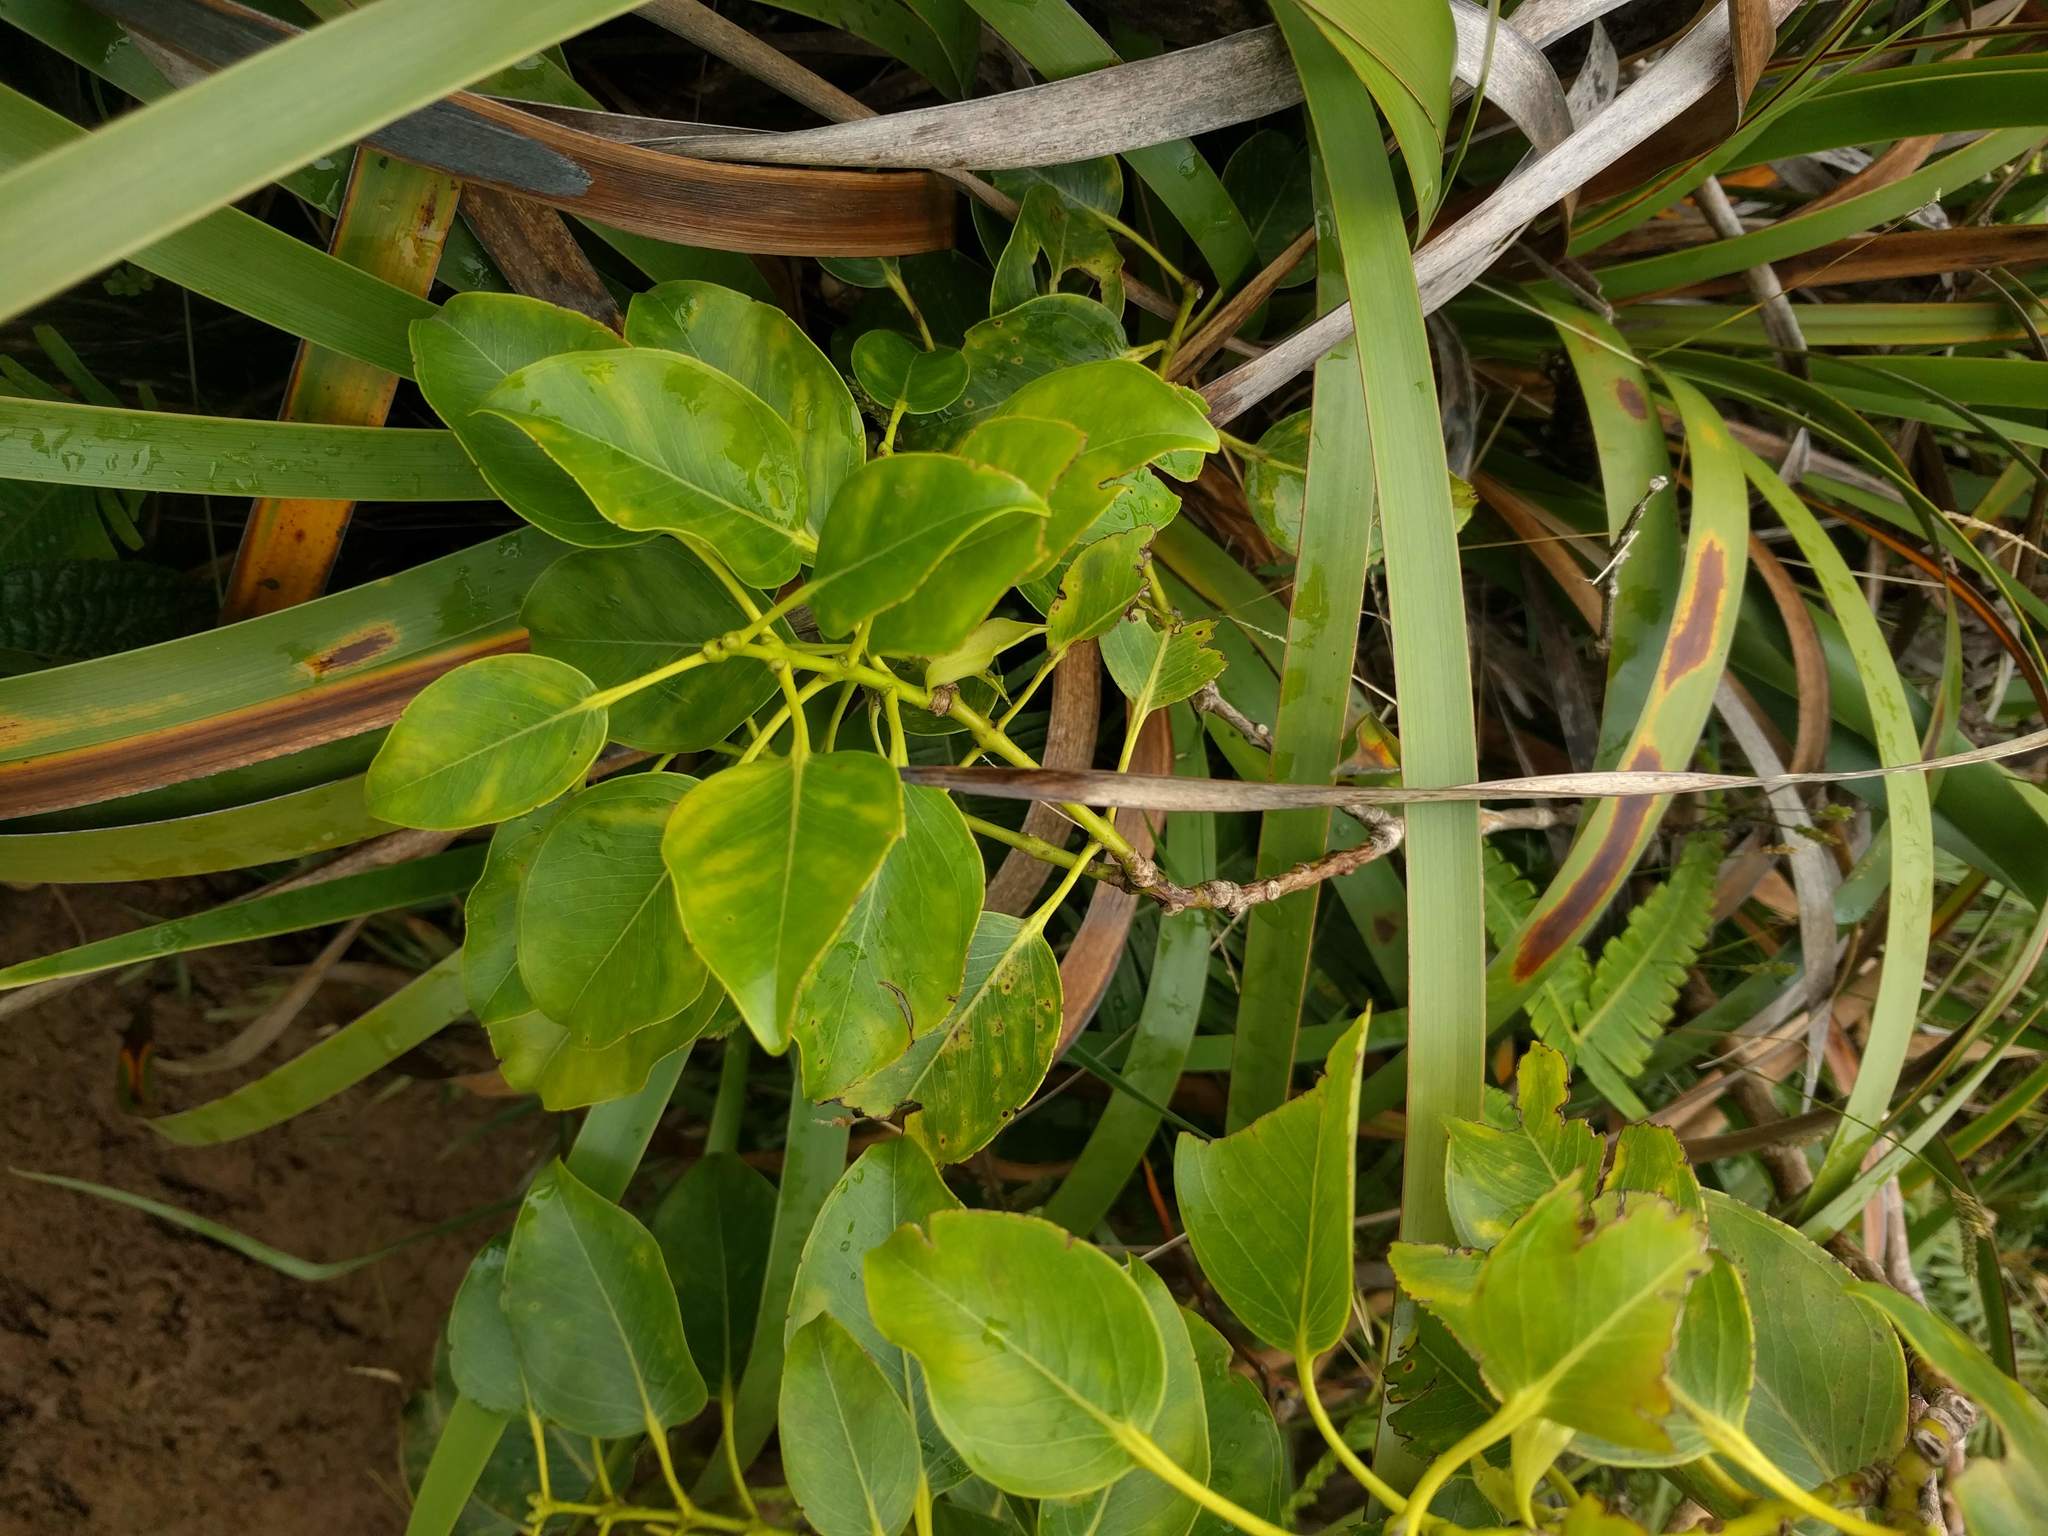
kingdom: Plantae
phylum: Tracheophyta
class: Magnoliopsida
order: Myrtales
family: Myrtaceae
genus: Metrosideros
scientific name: Metrosideros macropus
